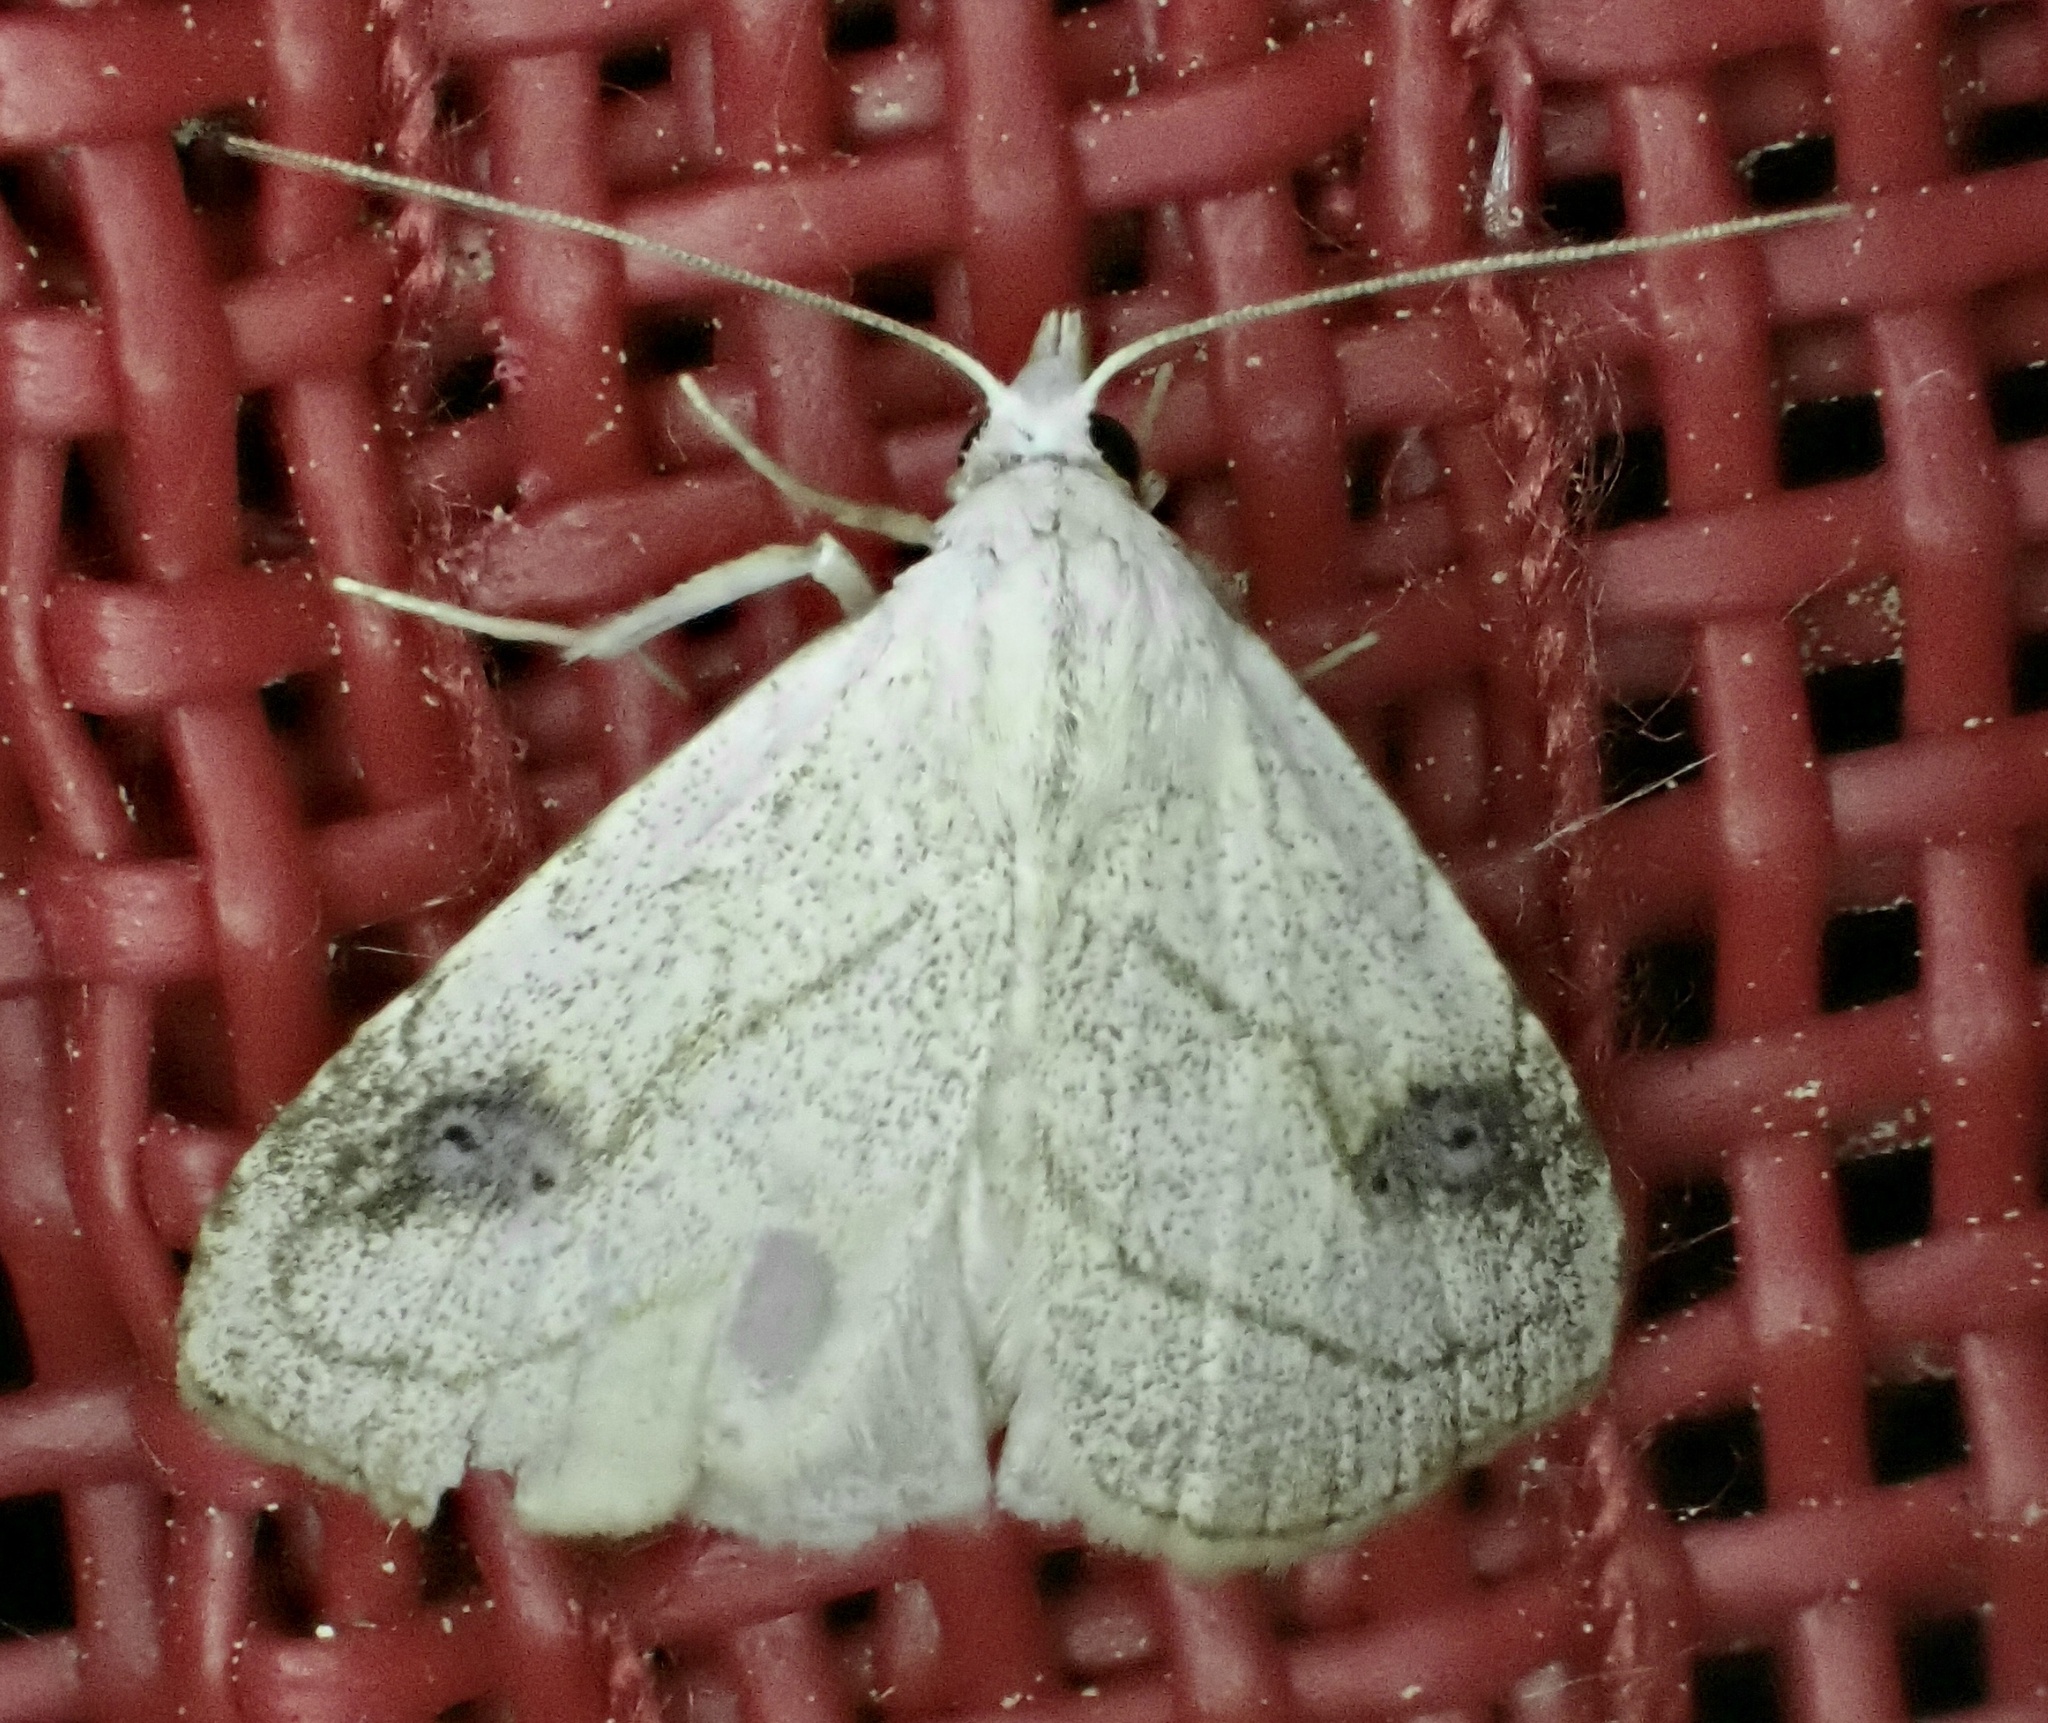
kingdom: Animalia
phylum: Arthropoda
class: Insecta
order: Lepidoptera
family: Erebidae
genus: Rivula
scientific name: Rivula propinqualis
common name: Spotted grass moth
